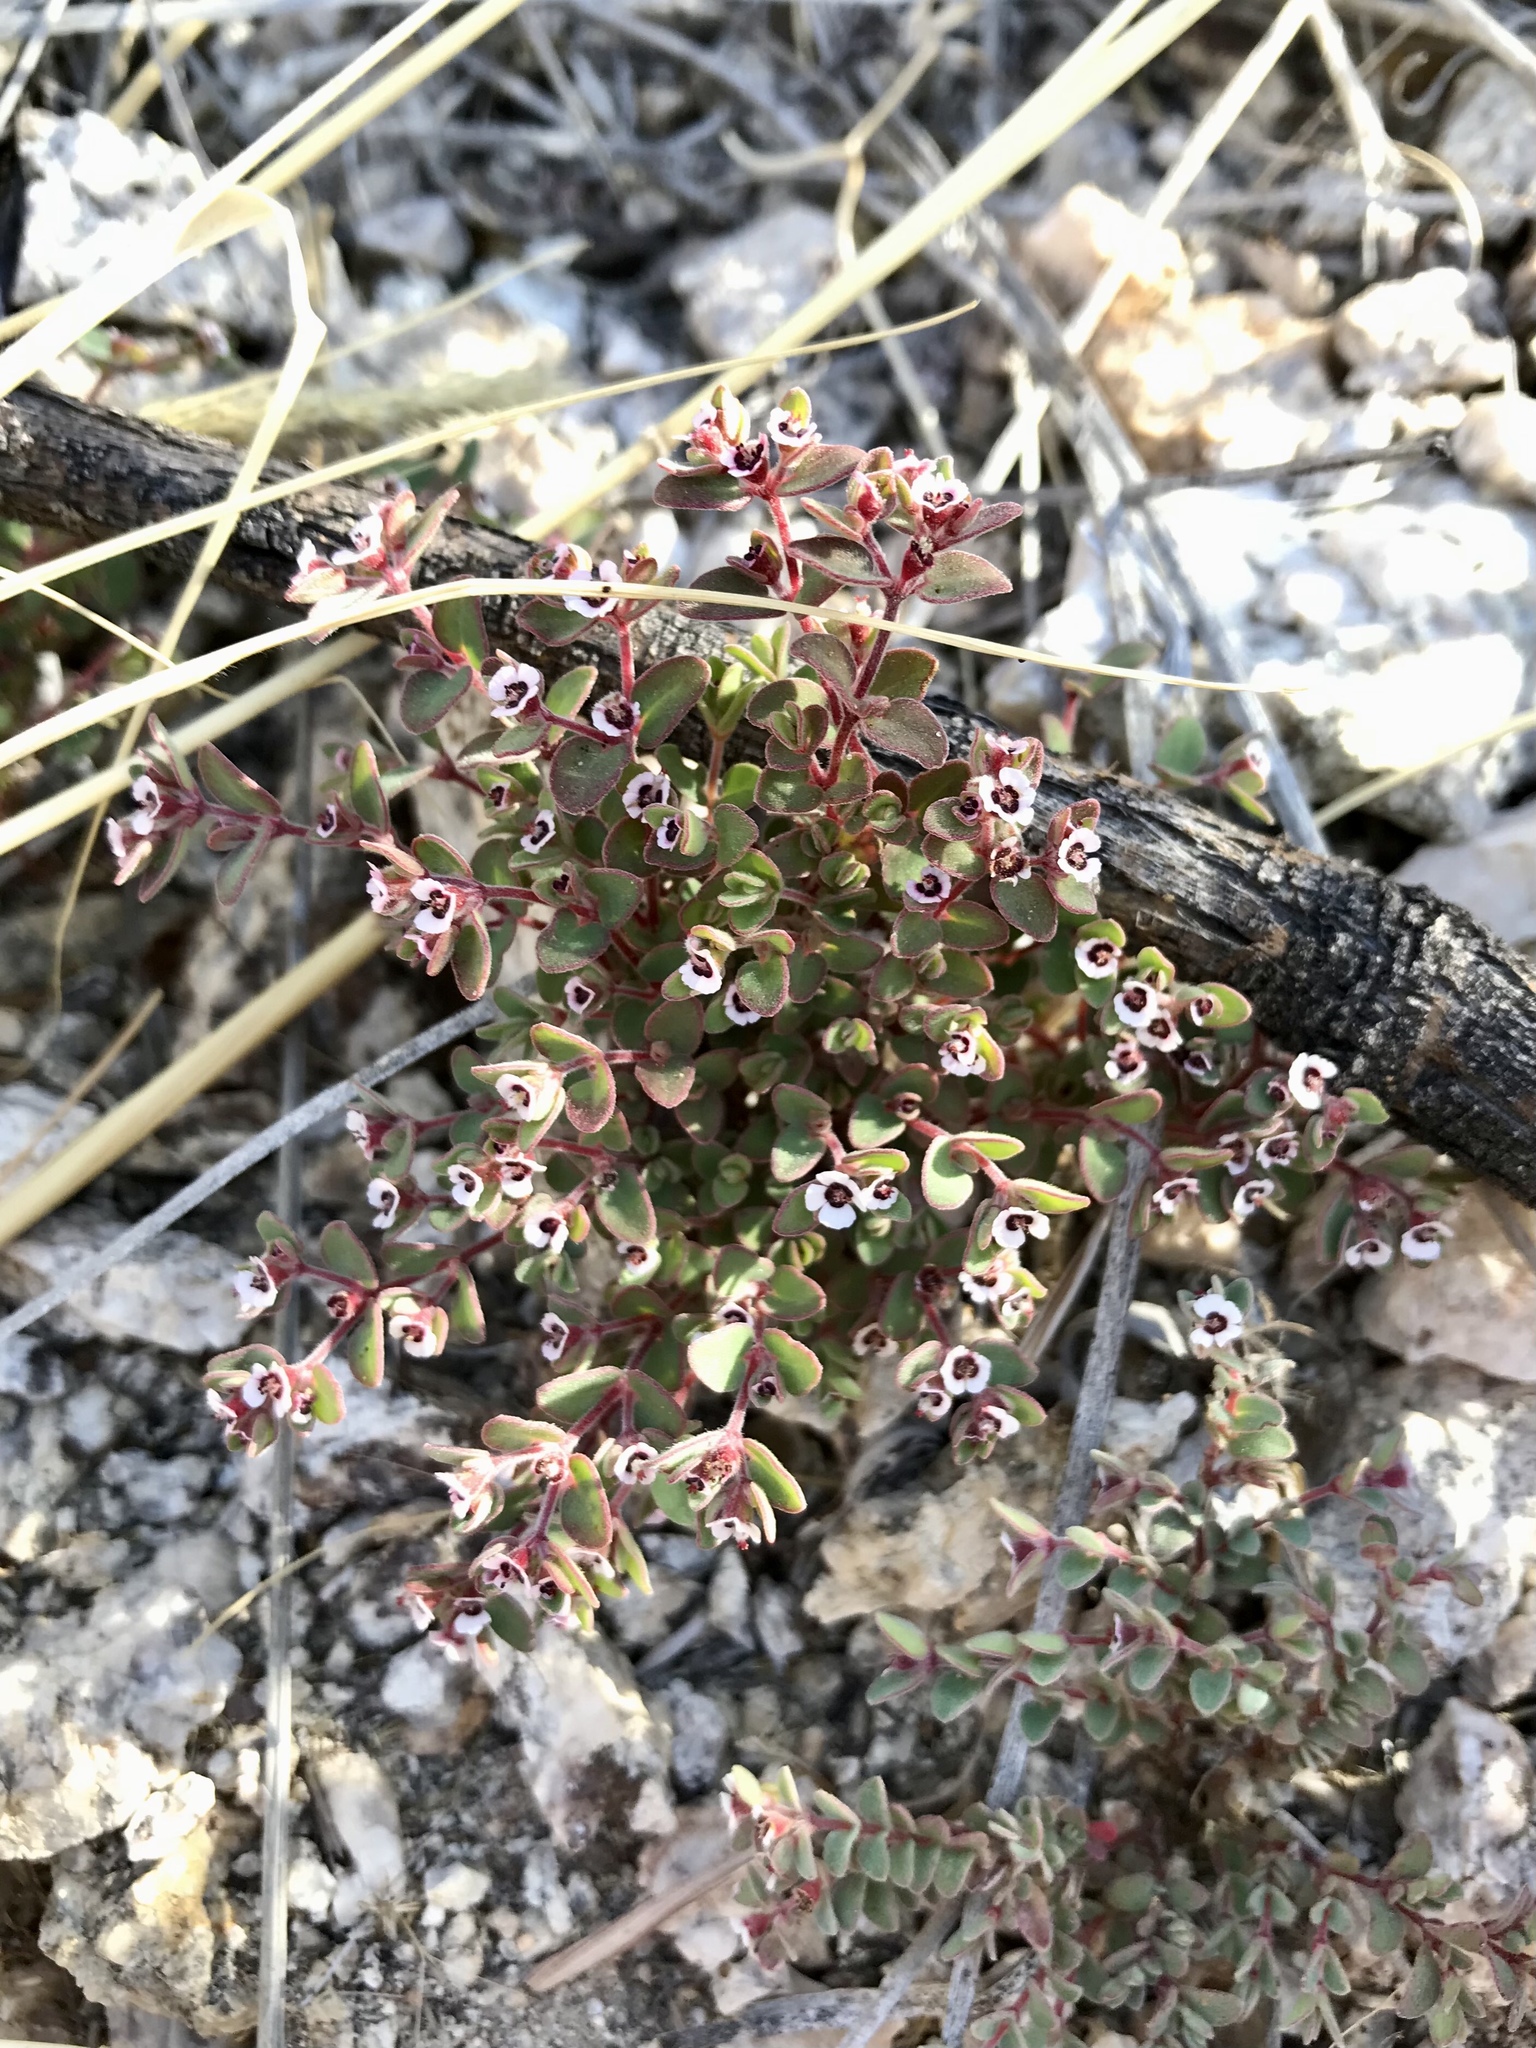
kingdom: Plantae
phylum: Tracheophyta
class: Magnoliopsida
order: Malpighiales
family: Euphorbiaceae
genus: Euphorbia
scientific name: Euphorbia melanadenia
